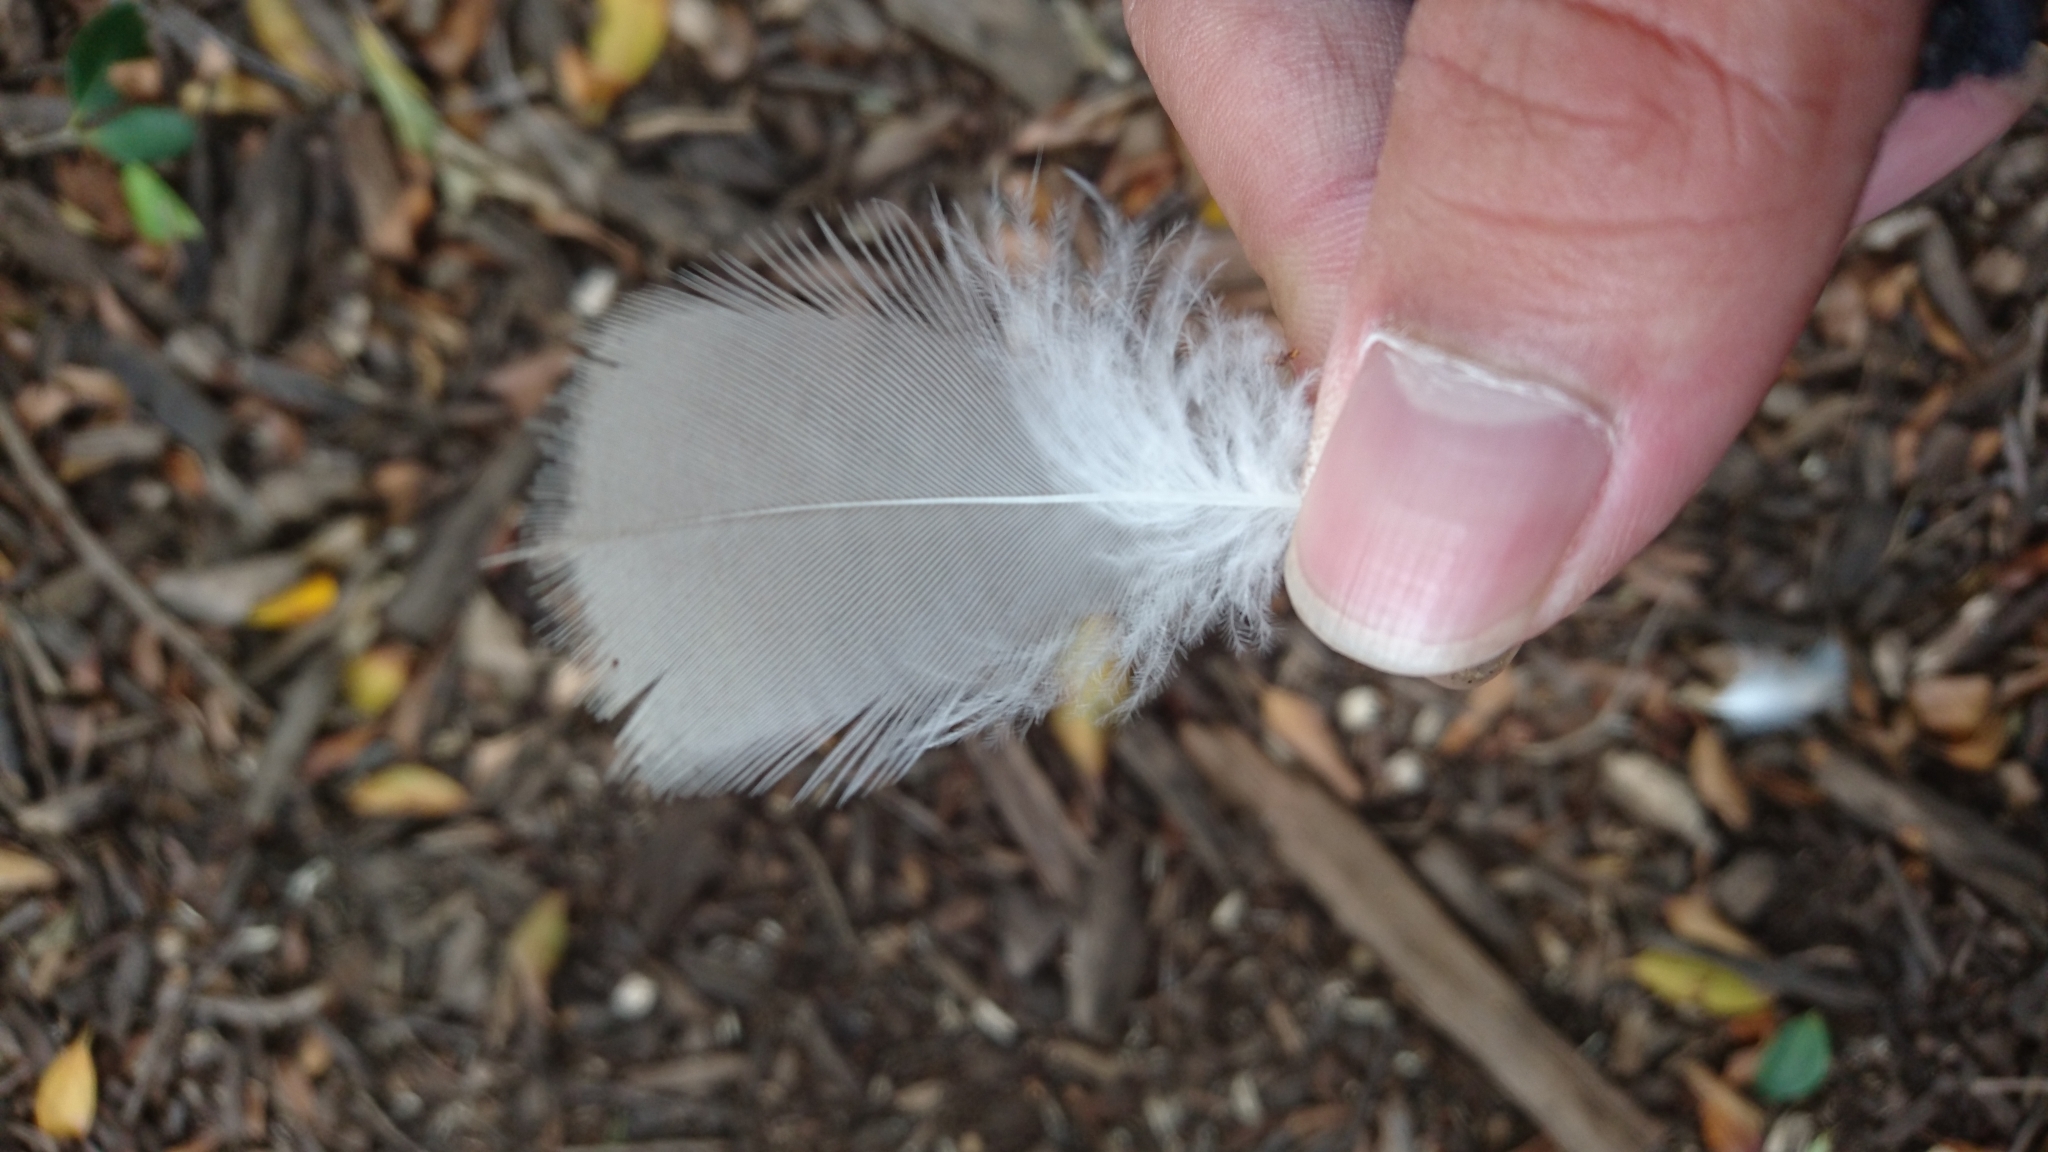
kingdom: Animalia
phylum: Chordata
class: Aves
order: Pelecaniformes
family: Threskiornithidae
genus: Threskiornis
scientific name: Threskiornis molucca
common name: Australian white ibis
